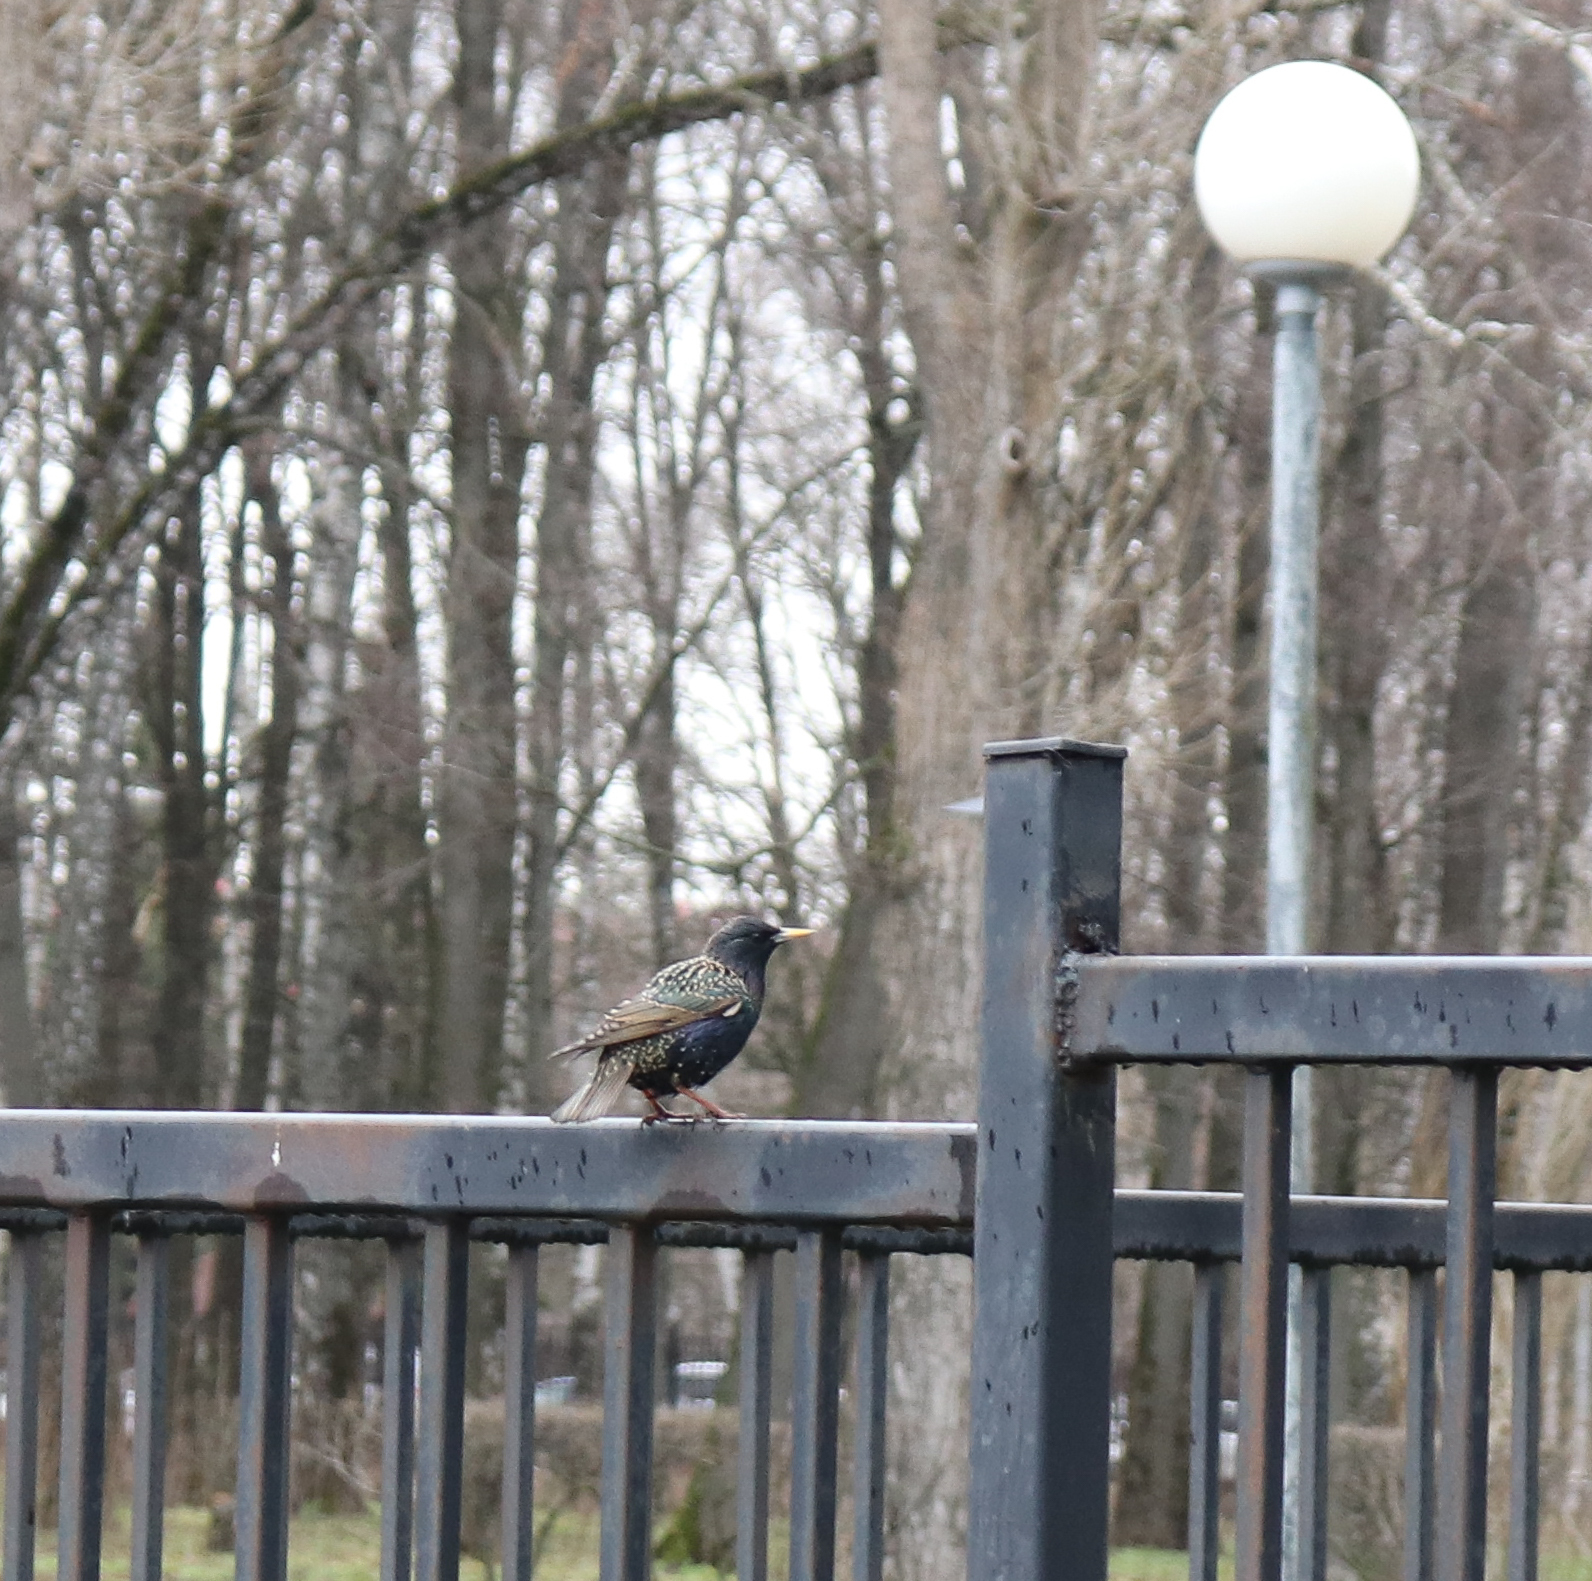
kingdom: Animalia
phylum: Chordata
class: Aves
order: Passeriformes
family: Sturnidae
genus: Sturnus
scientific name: Sturnus vulgaris
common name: Common starling
